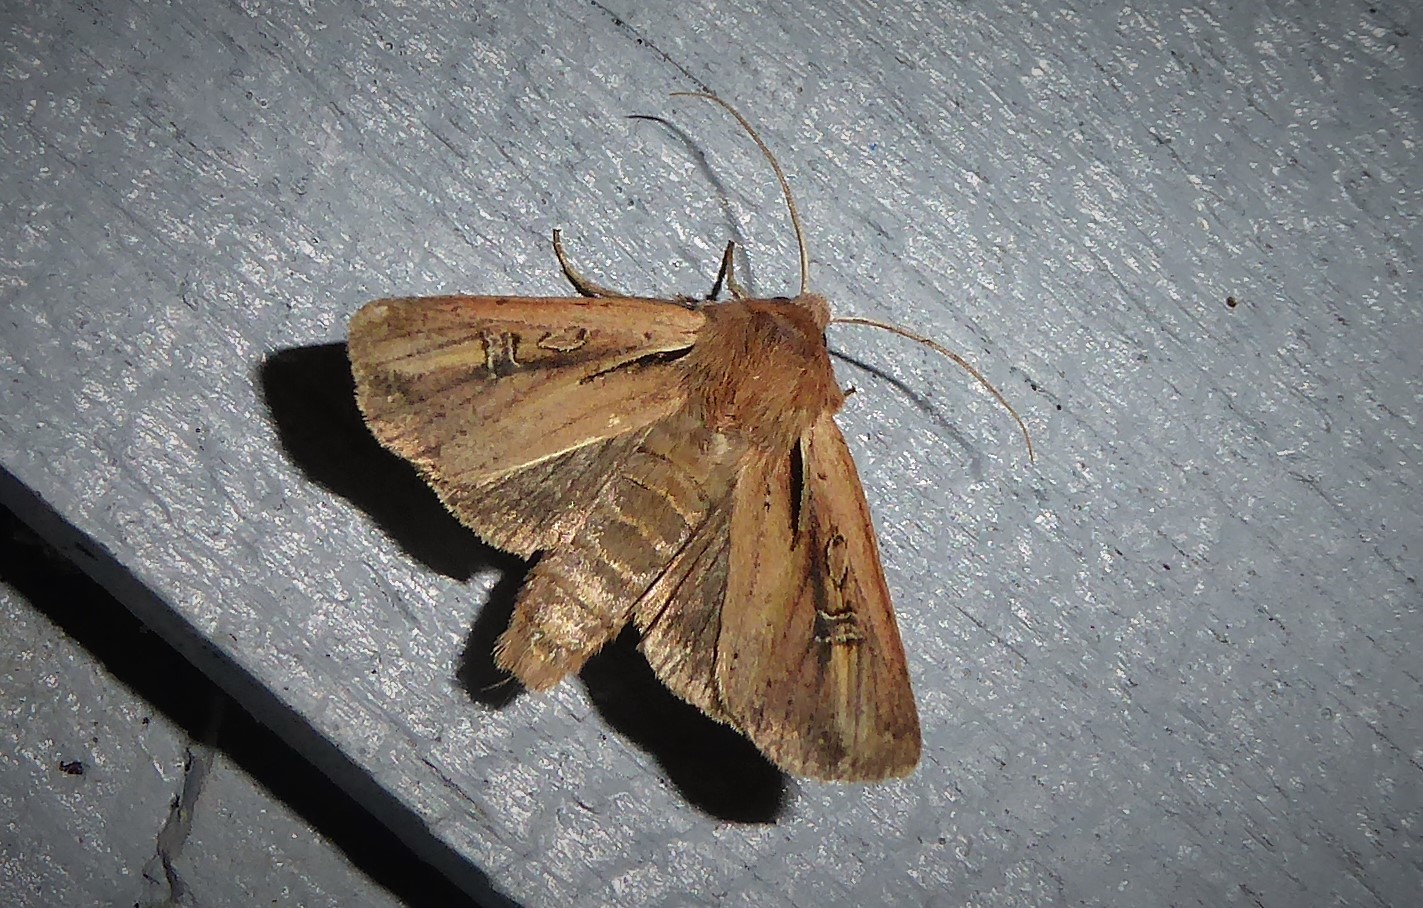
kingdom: Animalia
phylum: Arthropoda
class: Insecta
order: Lepidoptera
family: Noctuidae
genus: Ichneutica
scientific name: Ichneutica atristriga
